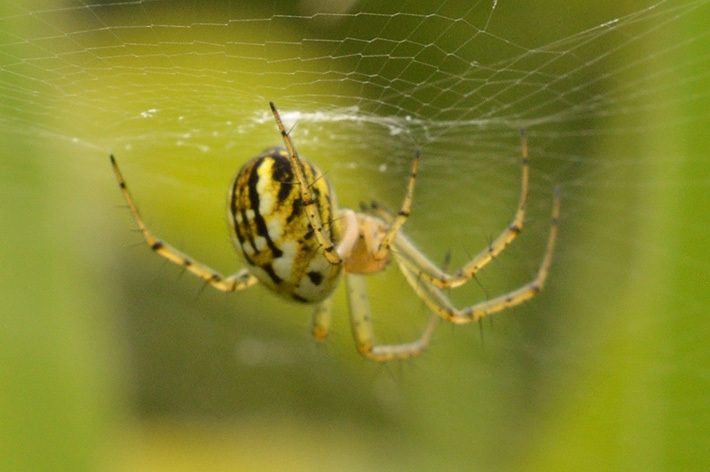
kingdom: Animalia
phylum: Arthropoda
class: Arachnida
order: Araneae
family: Araneidae
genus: Mangora
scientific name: Mangora acalypha
